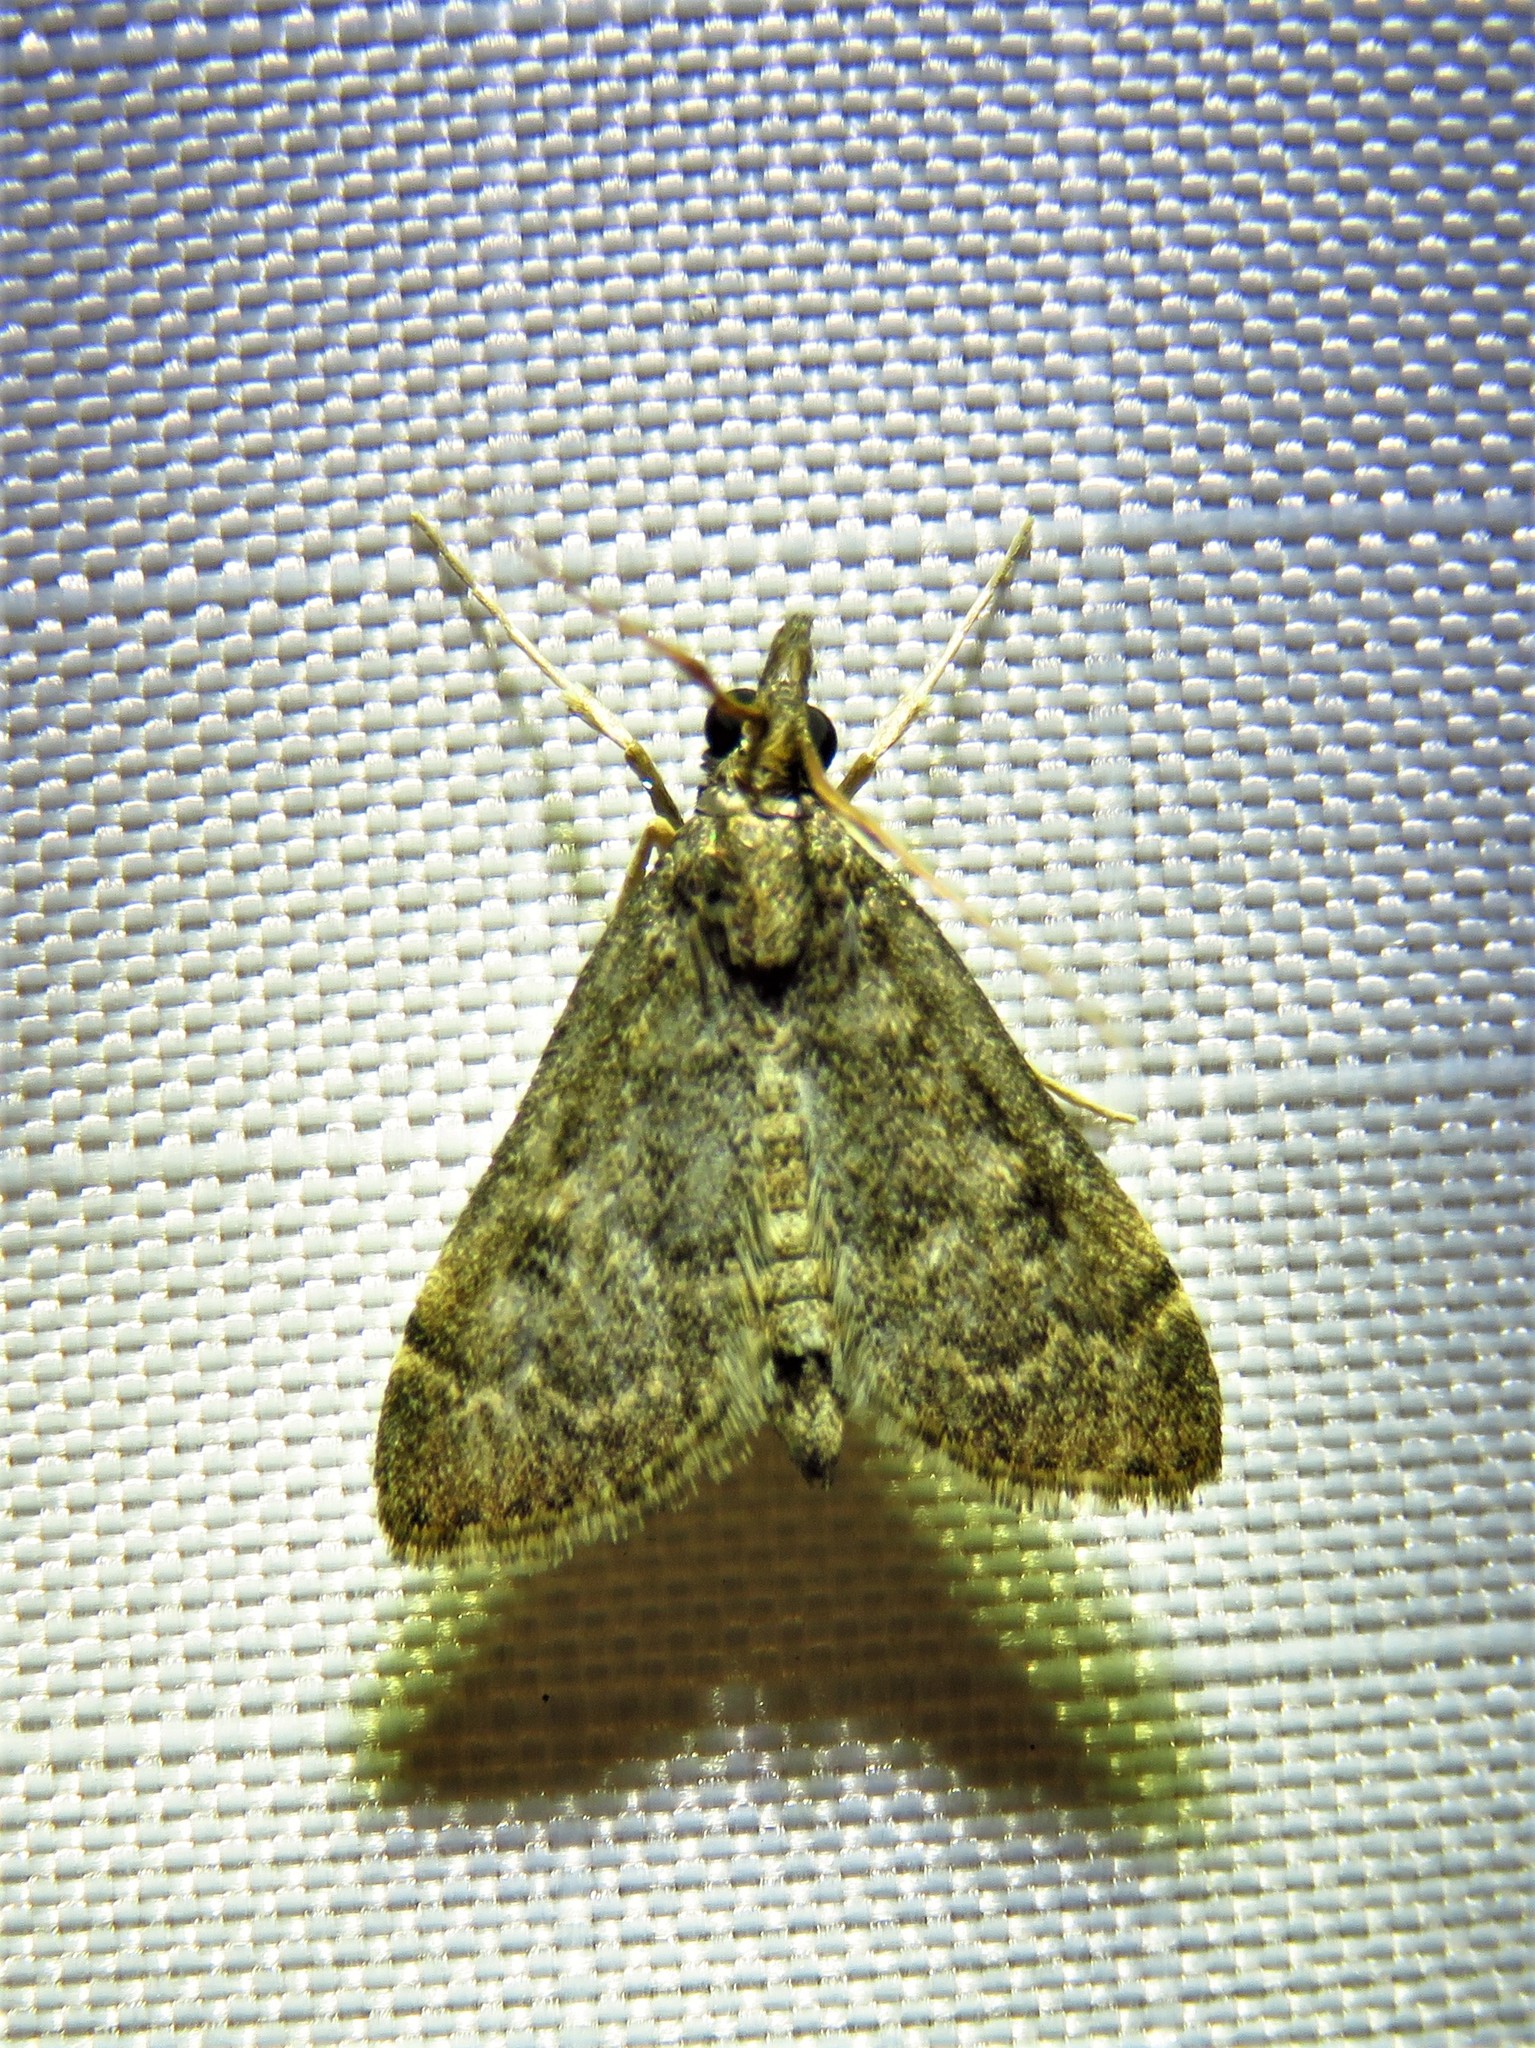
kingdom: Animalia
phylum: Arthropoda
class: Insecta
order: Lepidoptera
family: Crambidae
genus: Steniodes
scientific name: Steniodes declivalis
